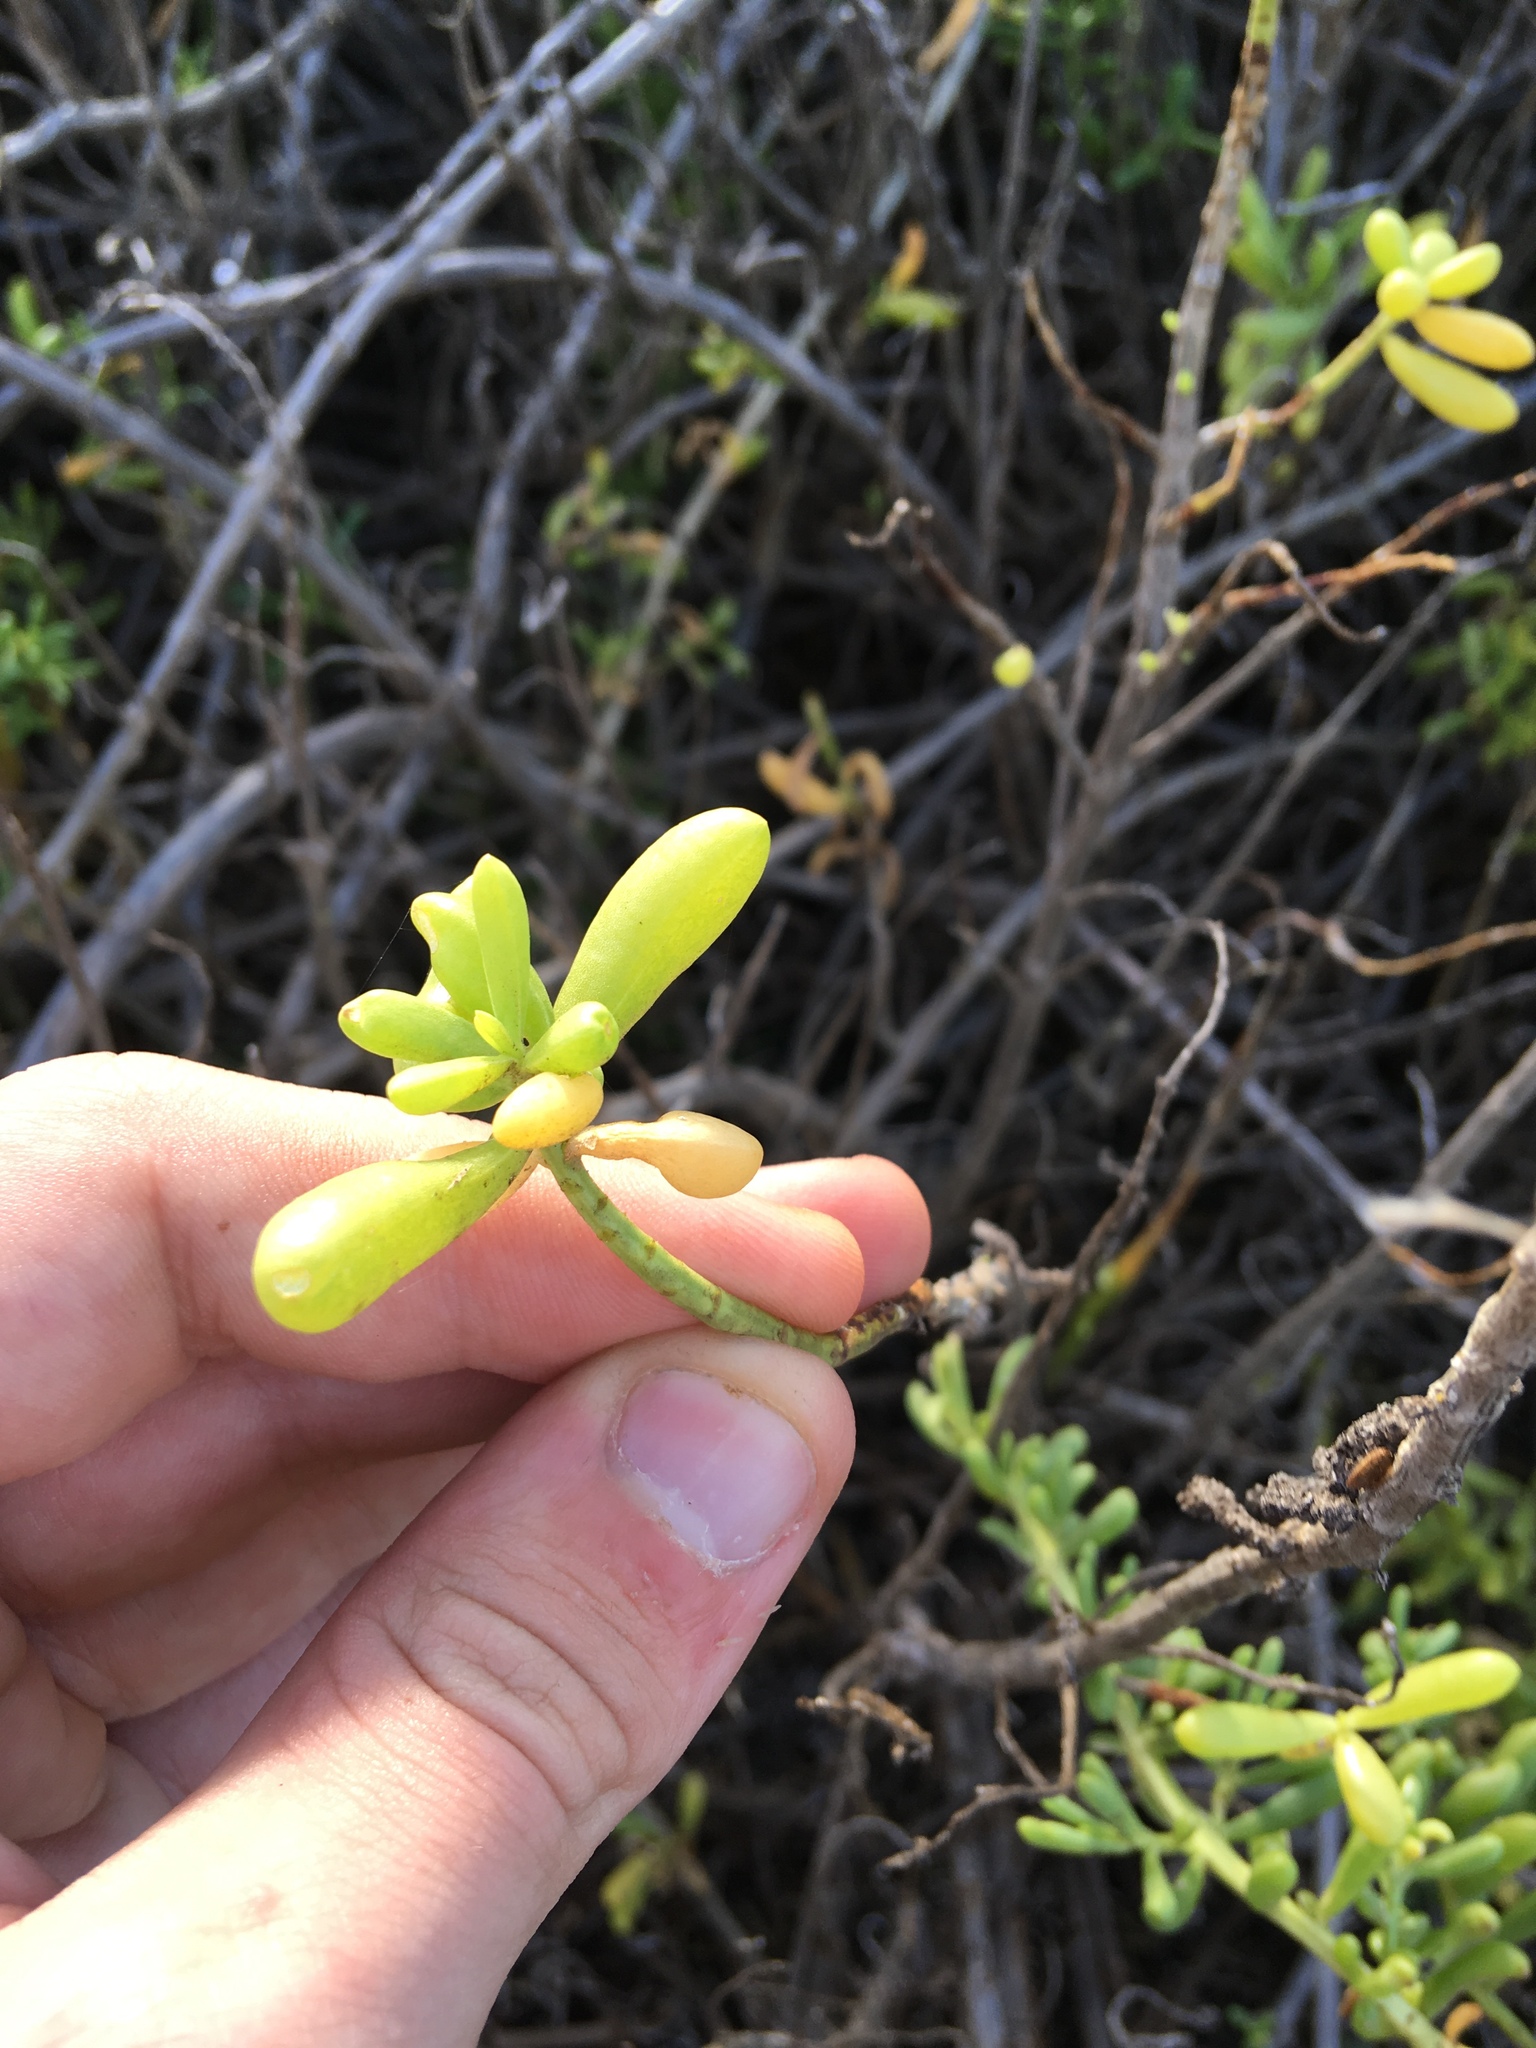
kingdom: Plantae
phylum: Tracheophyta
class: Magnoliopsida
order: Brassicales
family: Bataceae
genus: Batis
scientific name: Batis maritima
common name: Turtleweed
